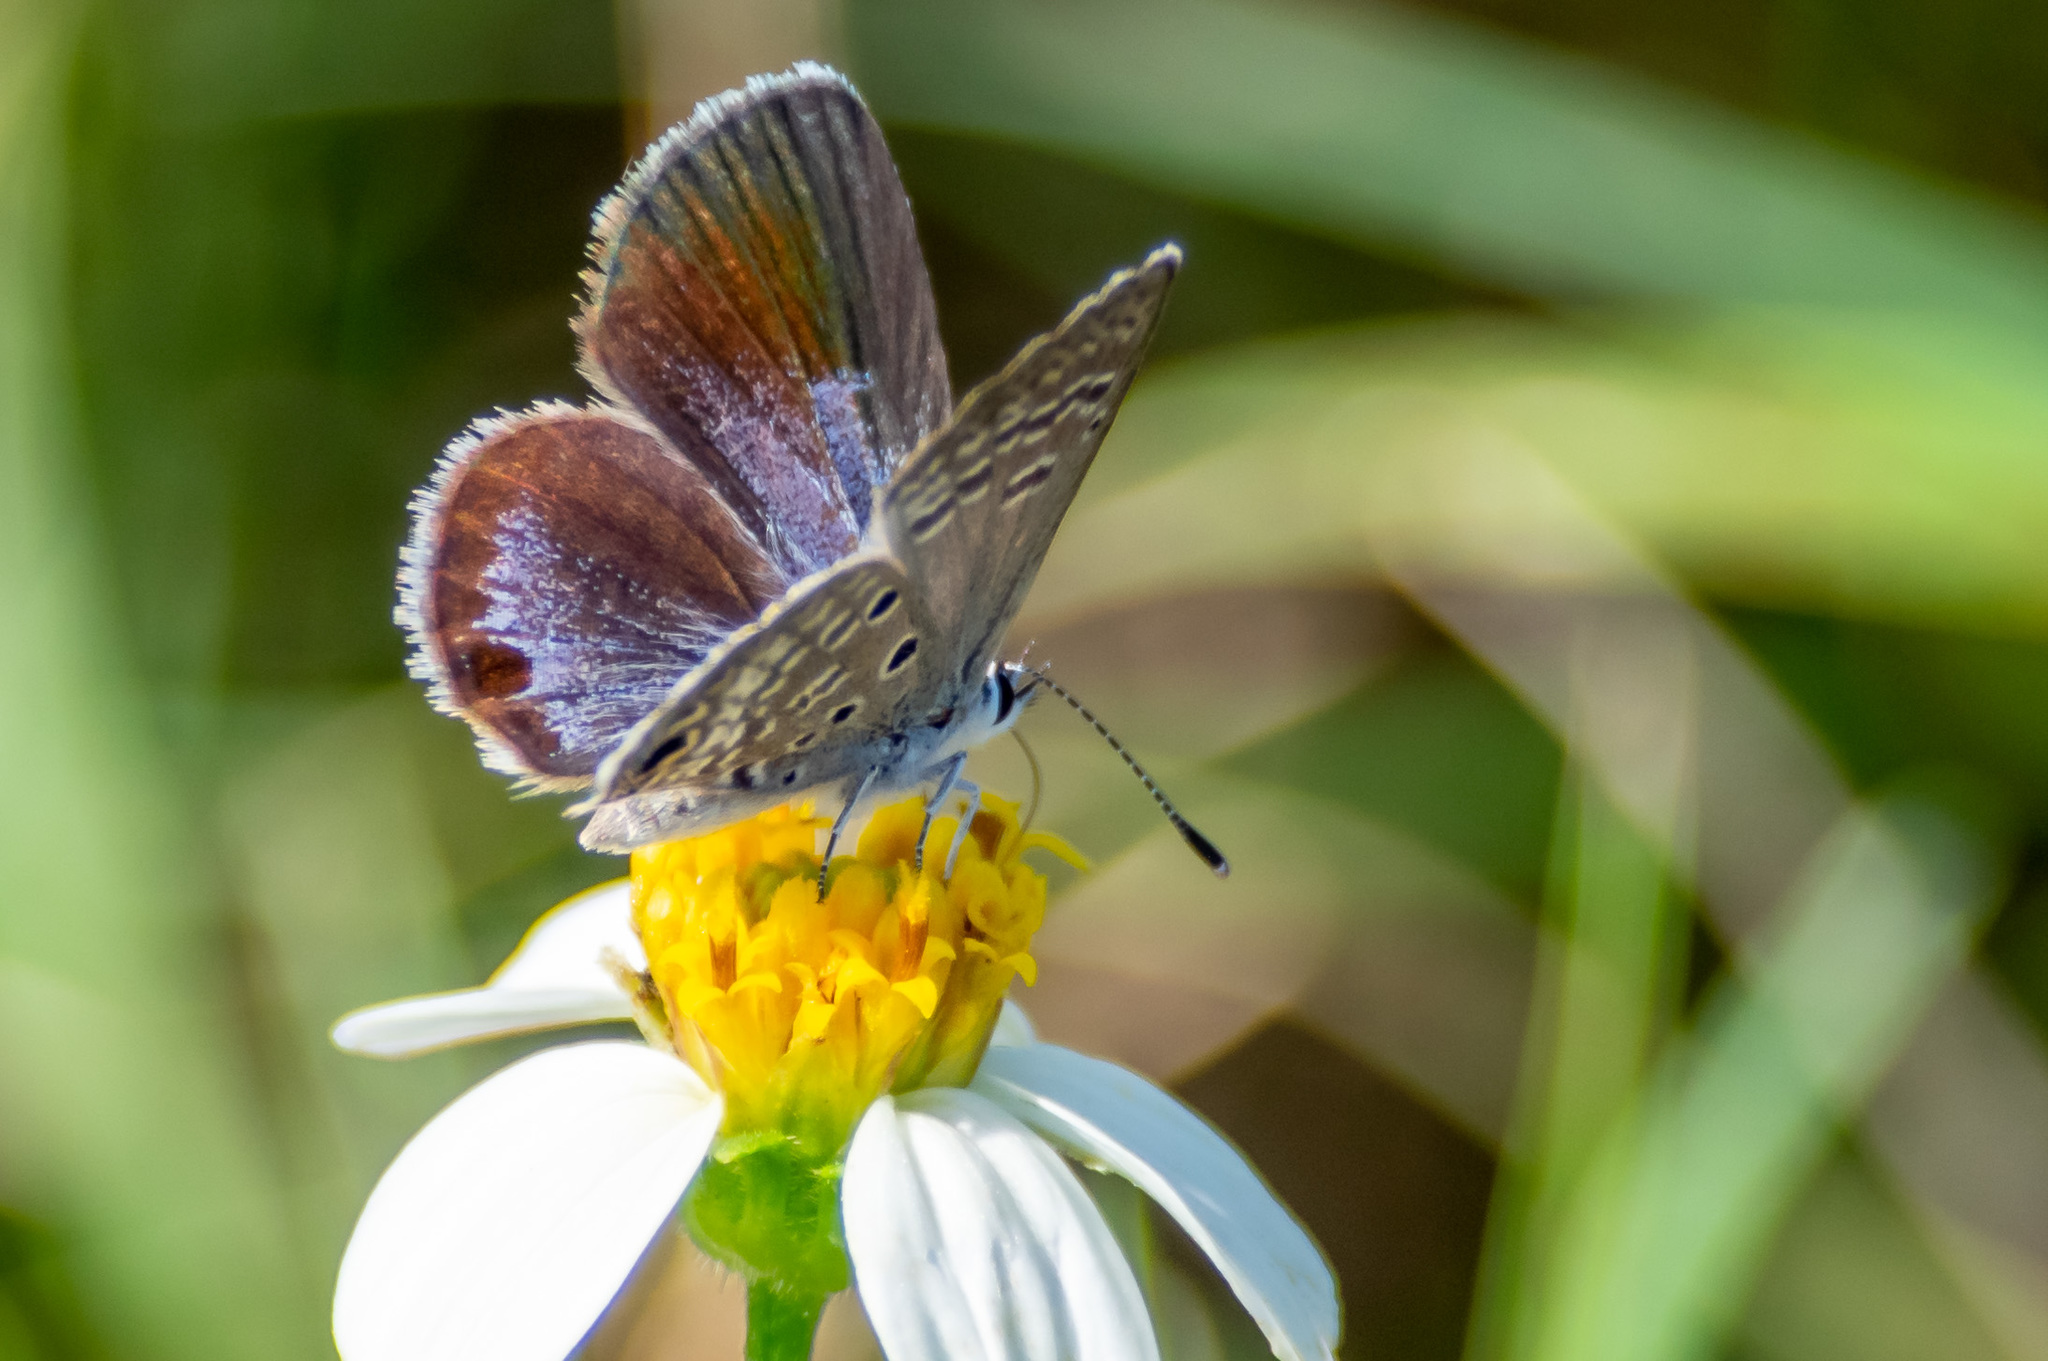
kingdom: Animalia
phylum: Arthropoda
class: Insecta
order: Lepidoptera
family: Lycaenidae
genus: Hemiargus
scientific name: Hemiargus ceraunus
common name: Ceraunus blue
